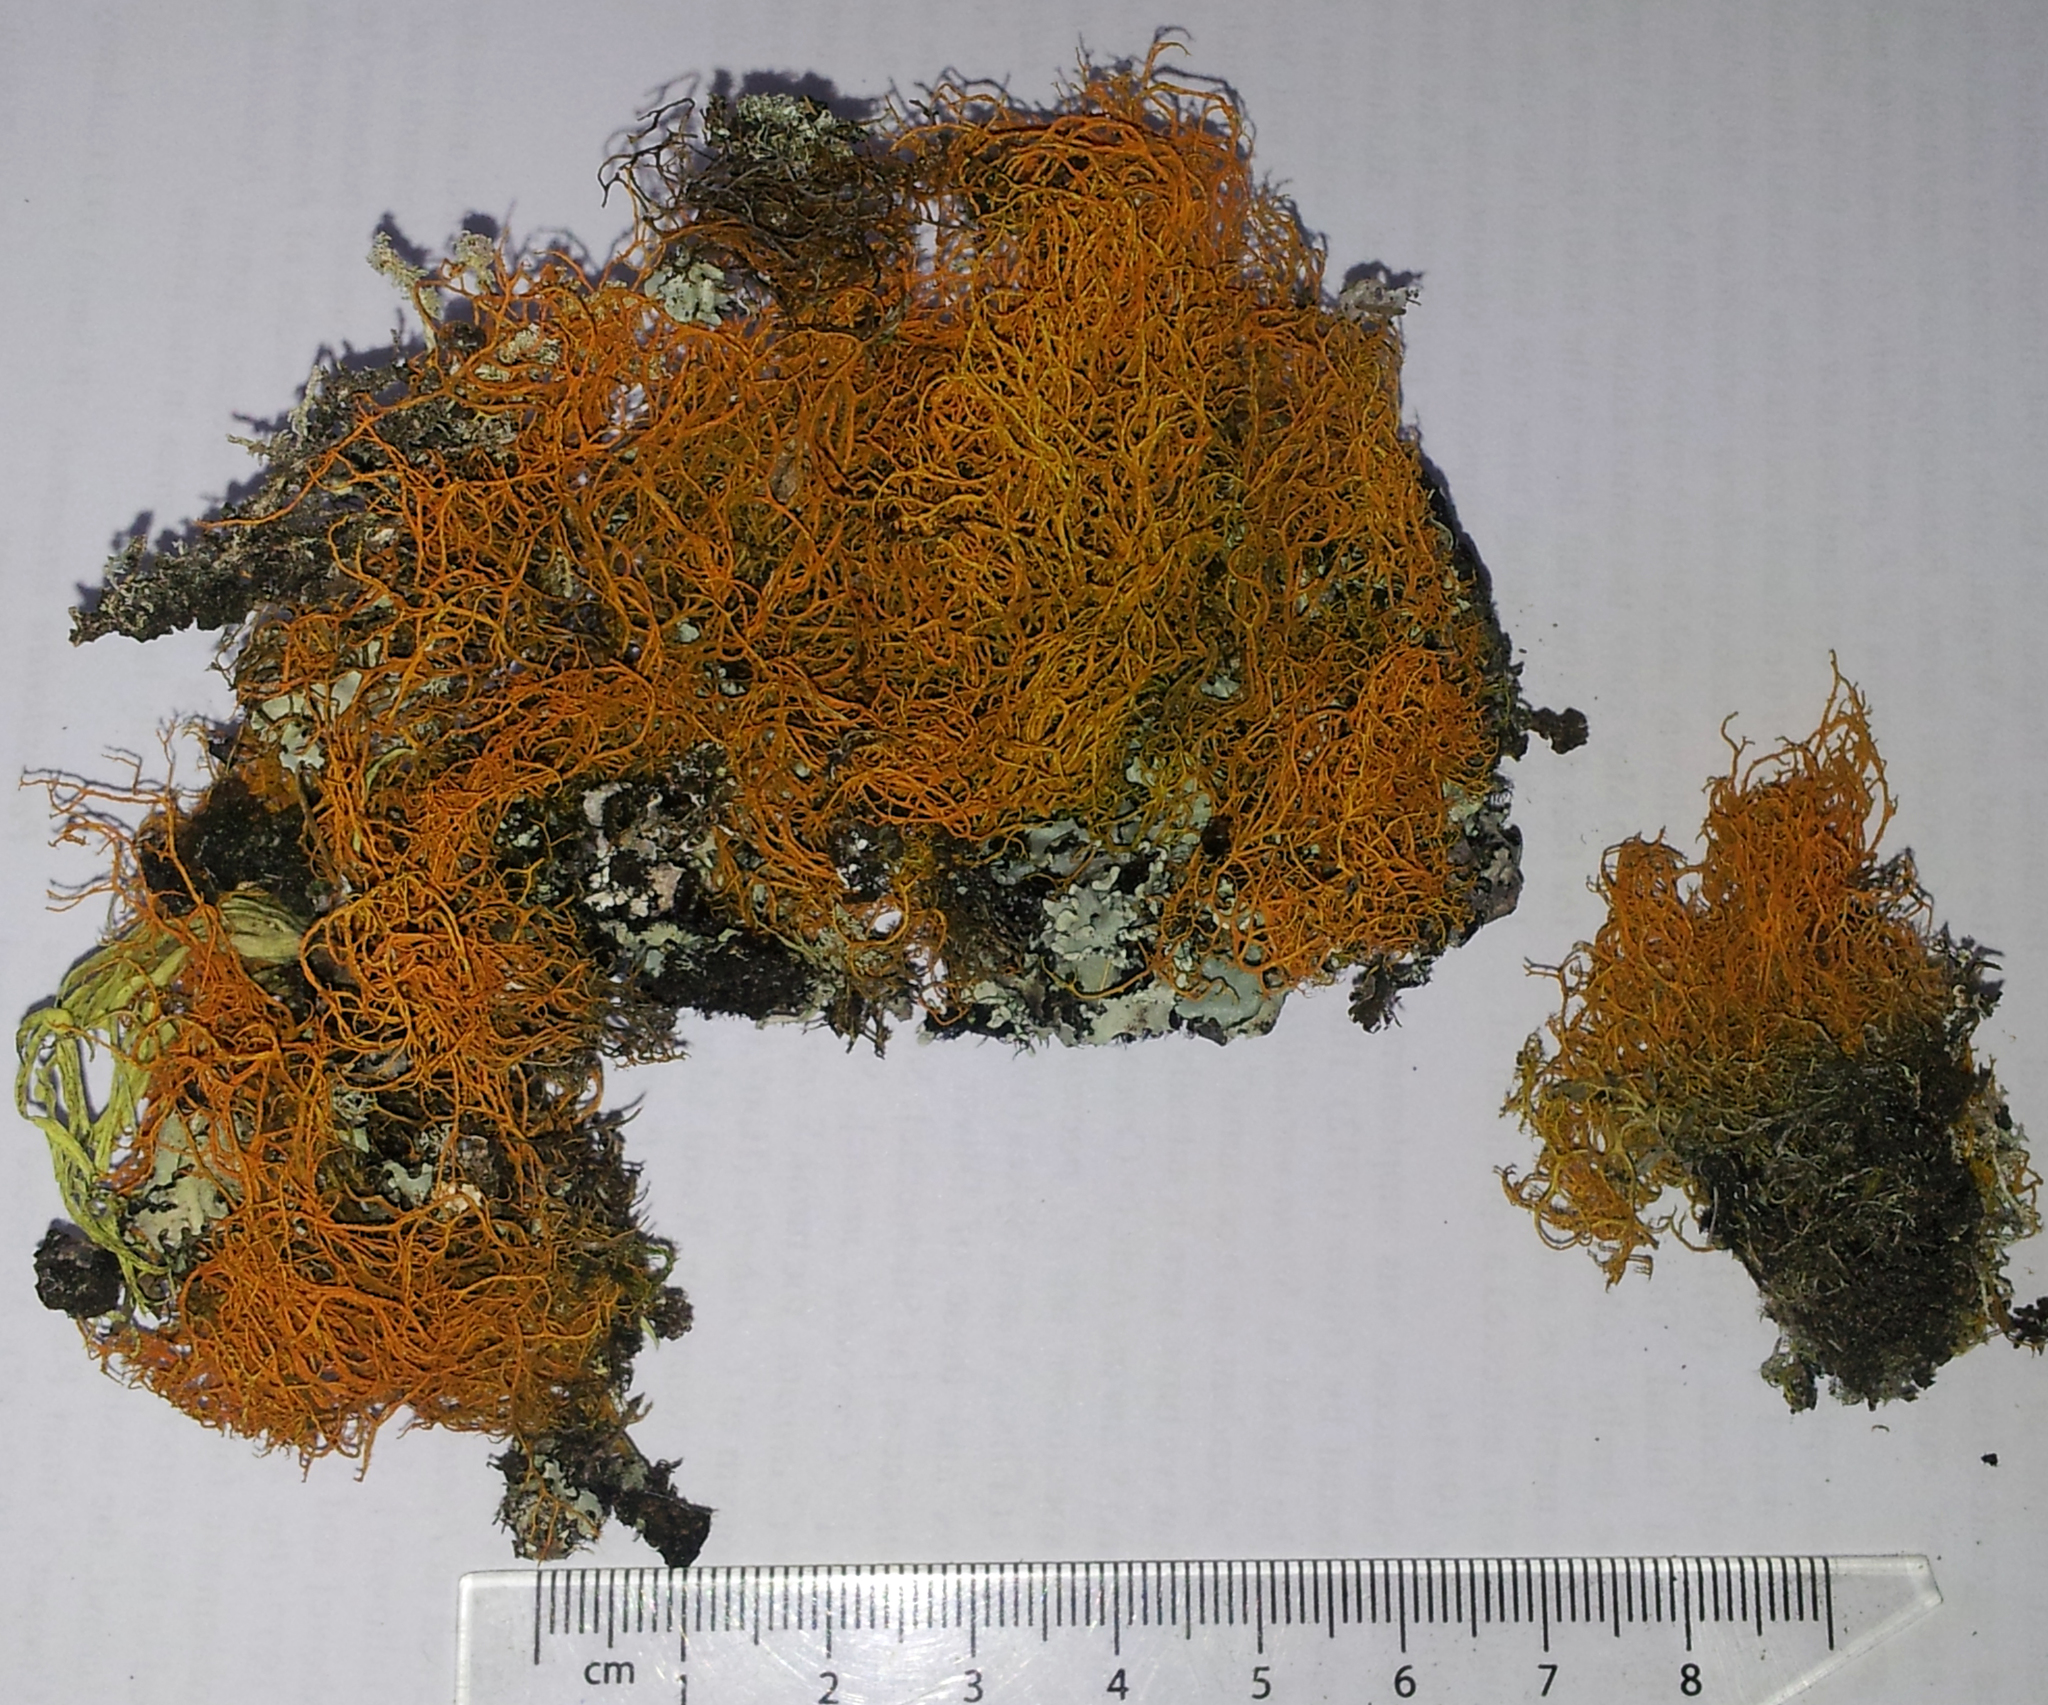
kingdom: Fungi
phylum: Ascomycota
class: Lecanoromycetes
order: Teloschistales
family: Teloschistaceae
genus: Teloschistes
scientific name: Teloschistes flavicans
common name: Golden hair-lichen
